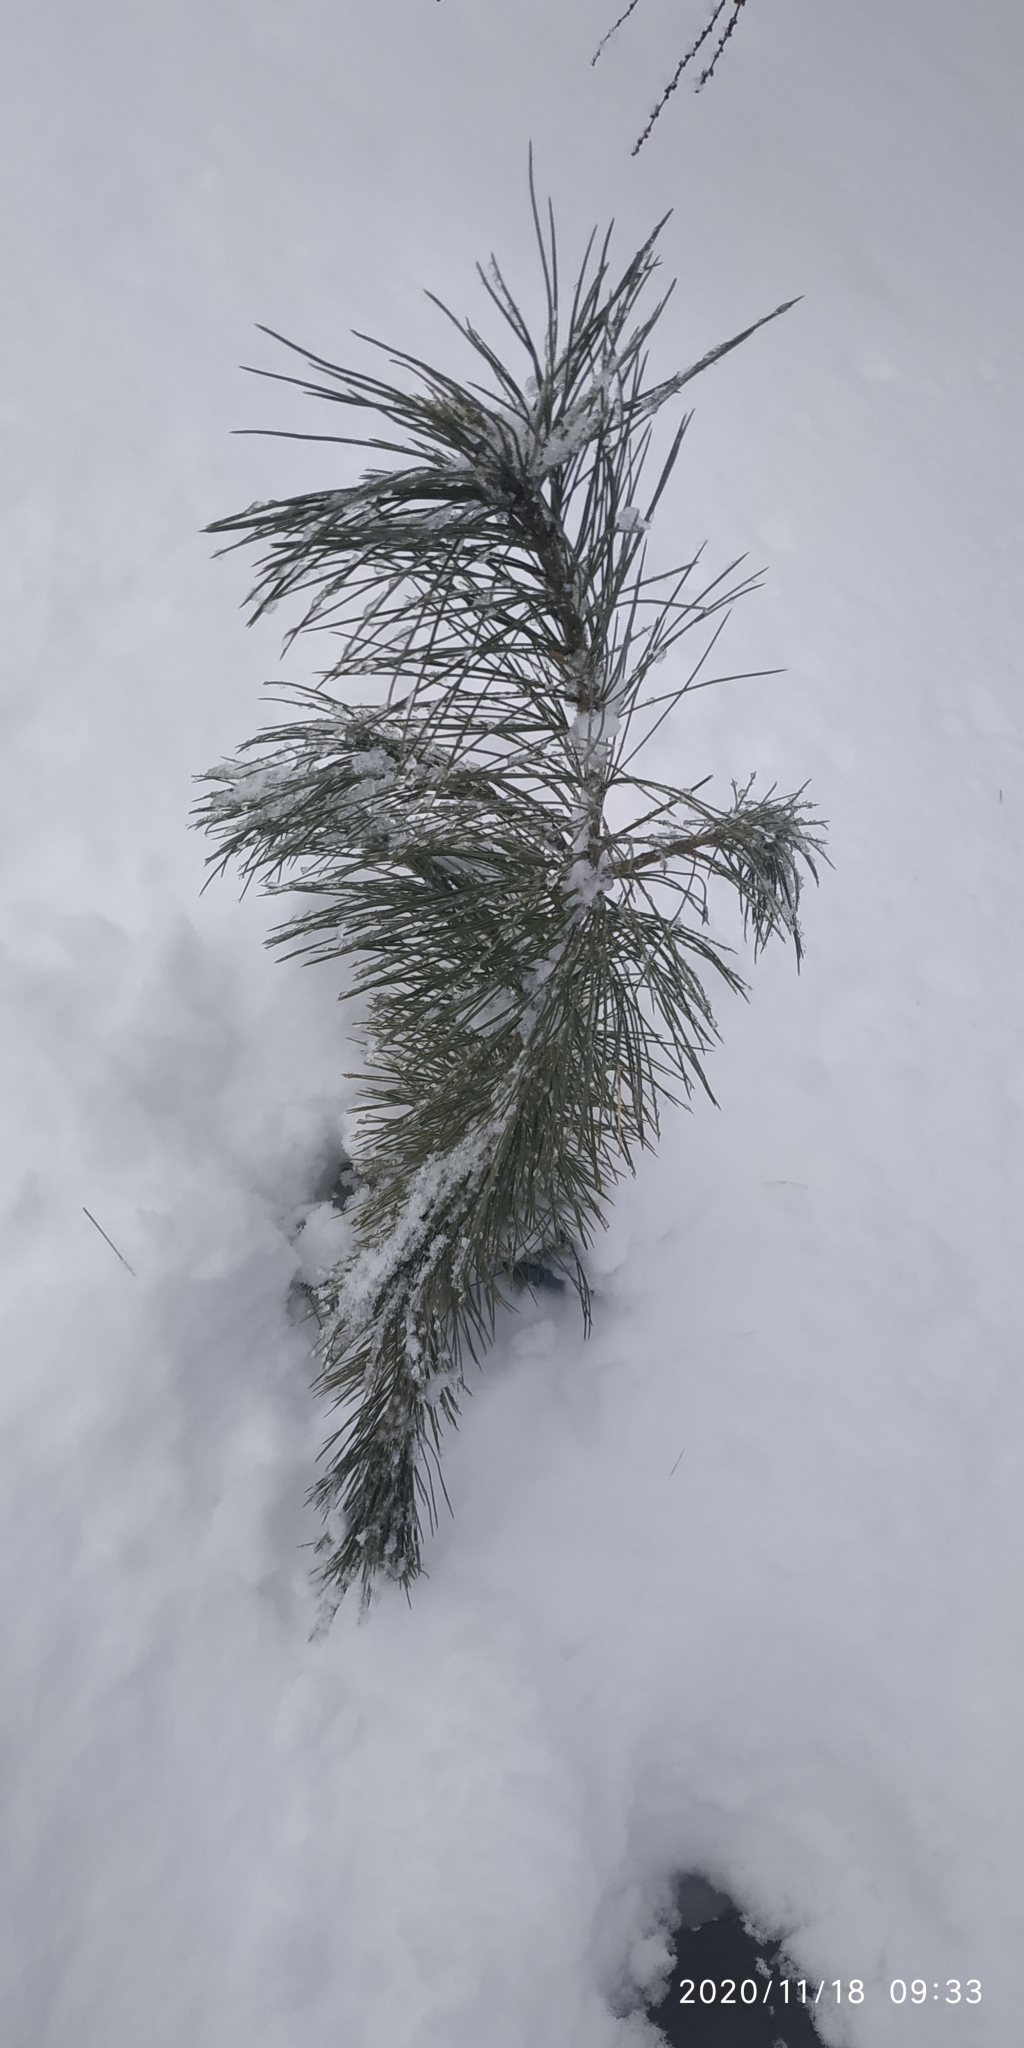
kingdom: Plantae
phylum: Tracheophyta
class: Pinopsida
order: Pinales
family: Pinaceae
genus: Pinus
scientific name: Pinus sibirica
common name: Siberian pine
